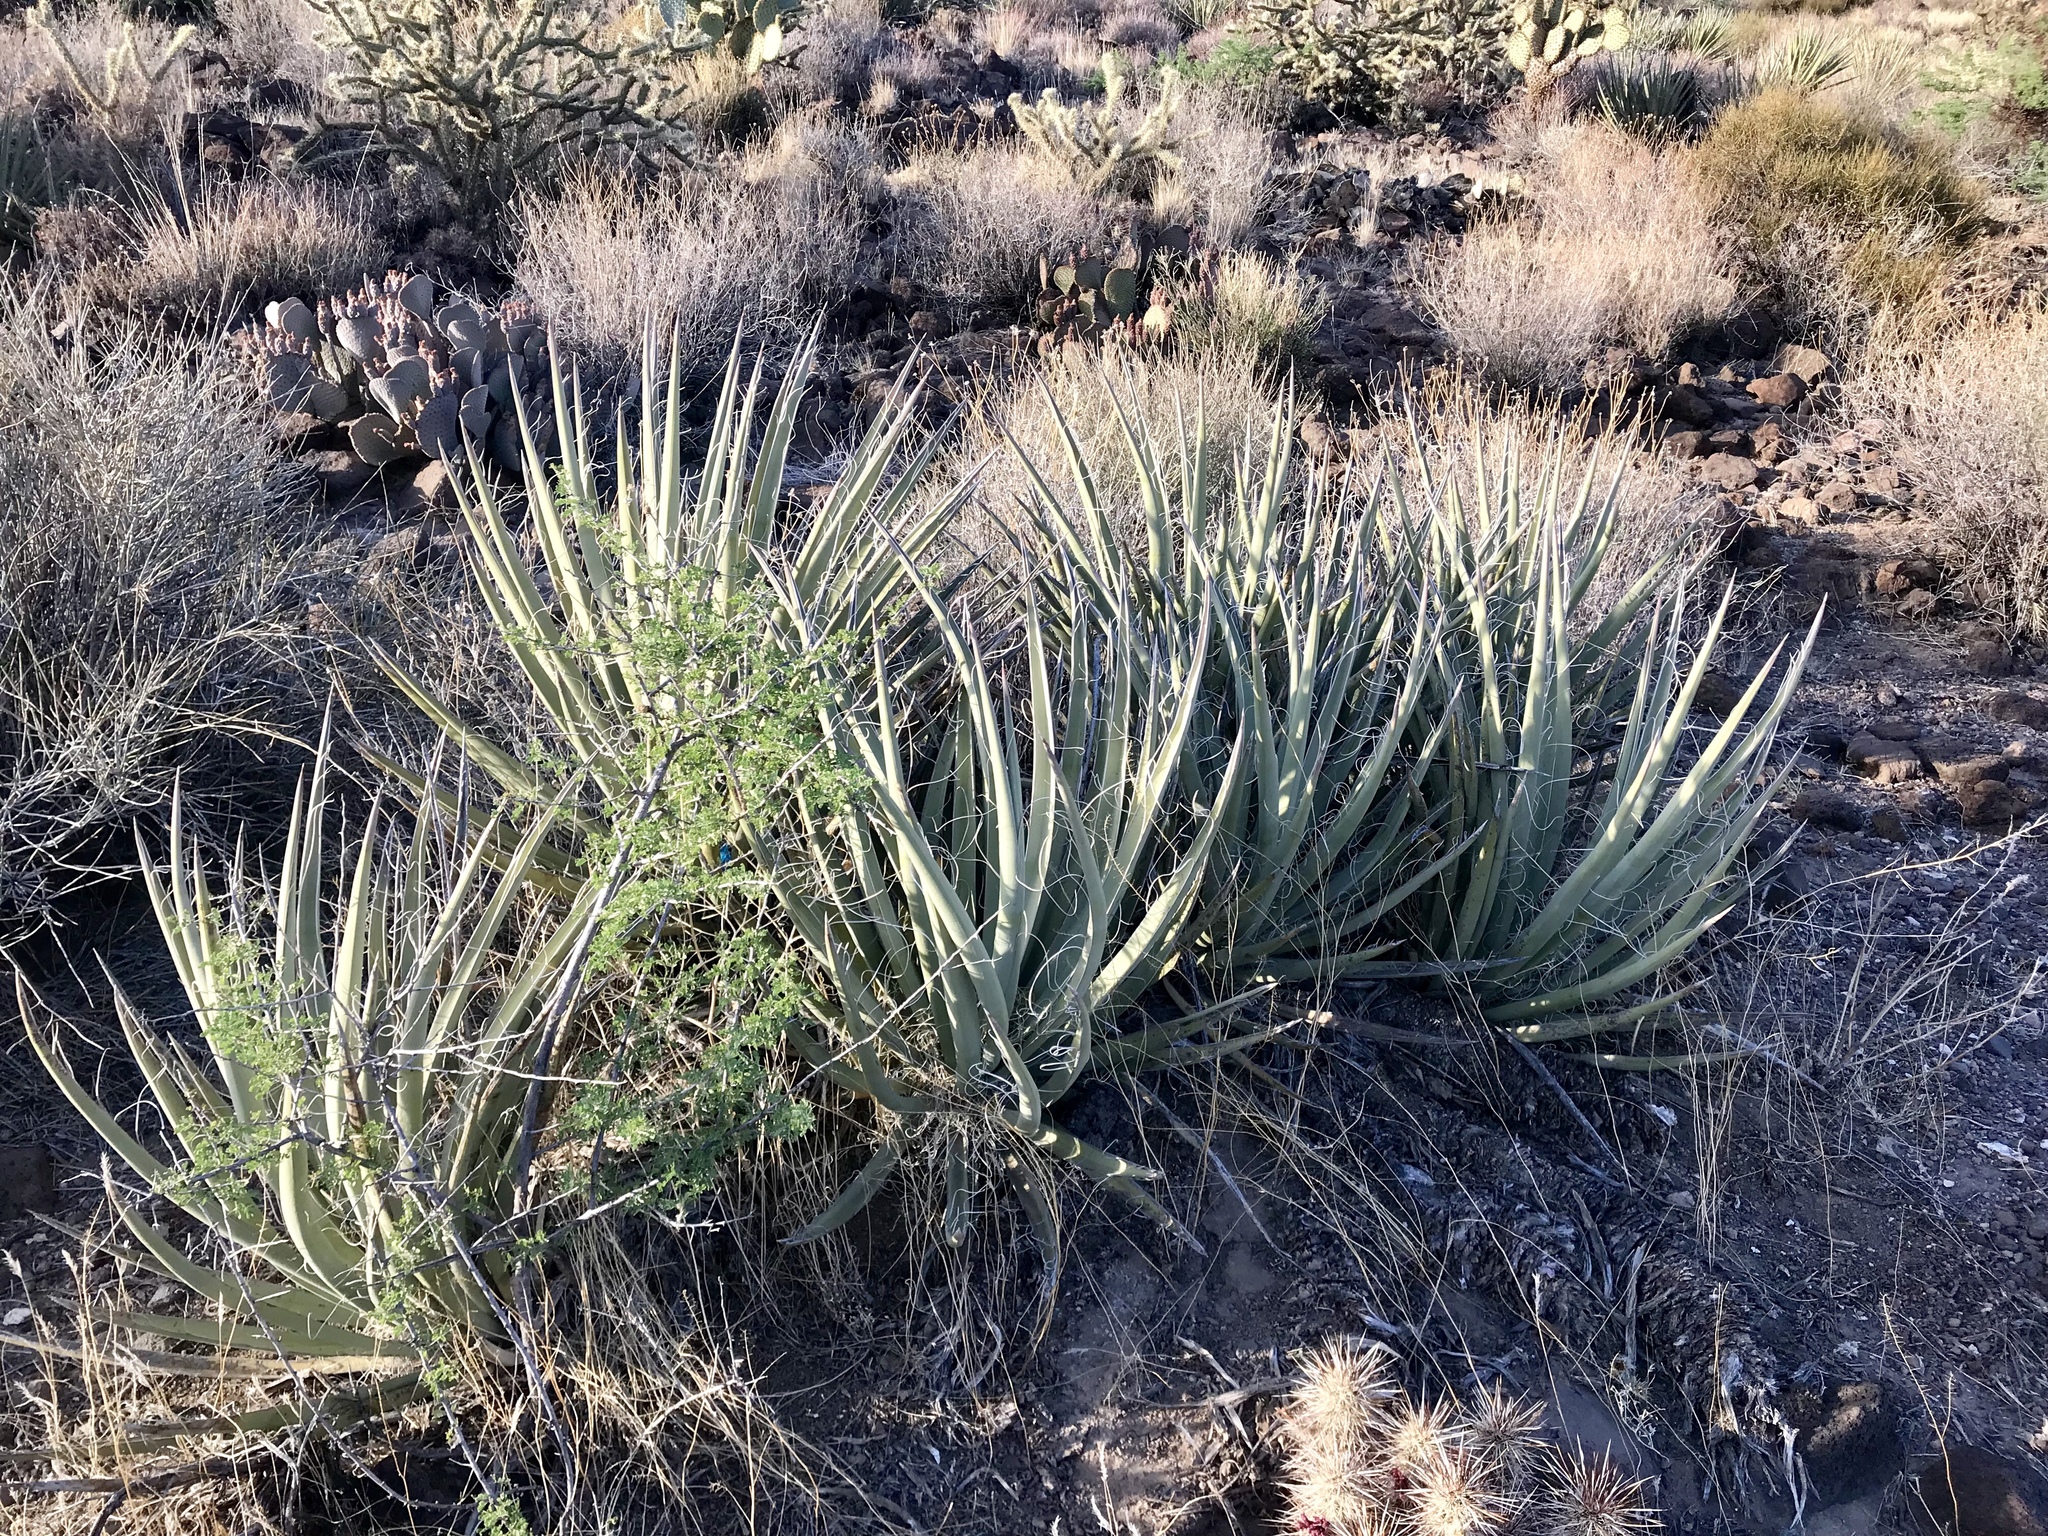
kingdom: Plantae
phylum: Tracheophyta
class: Liliopsida
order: Asparagales
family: Asparagaceae
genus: Yucca
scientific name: Yucca baccata
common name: Banana yucca
